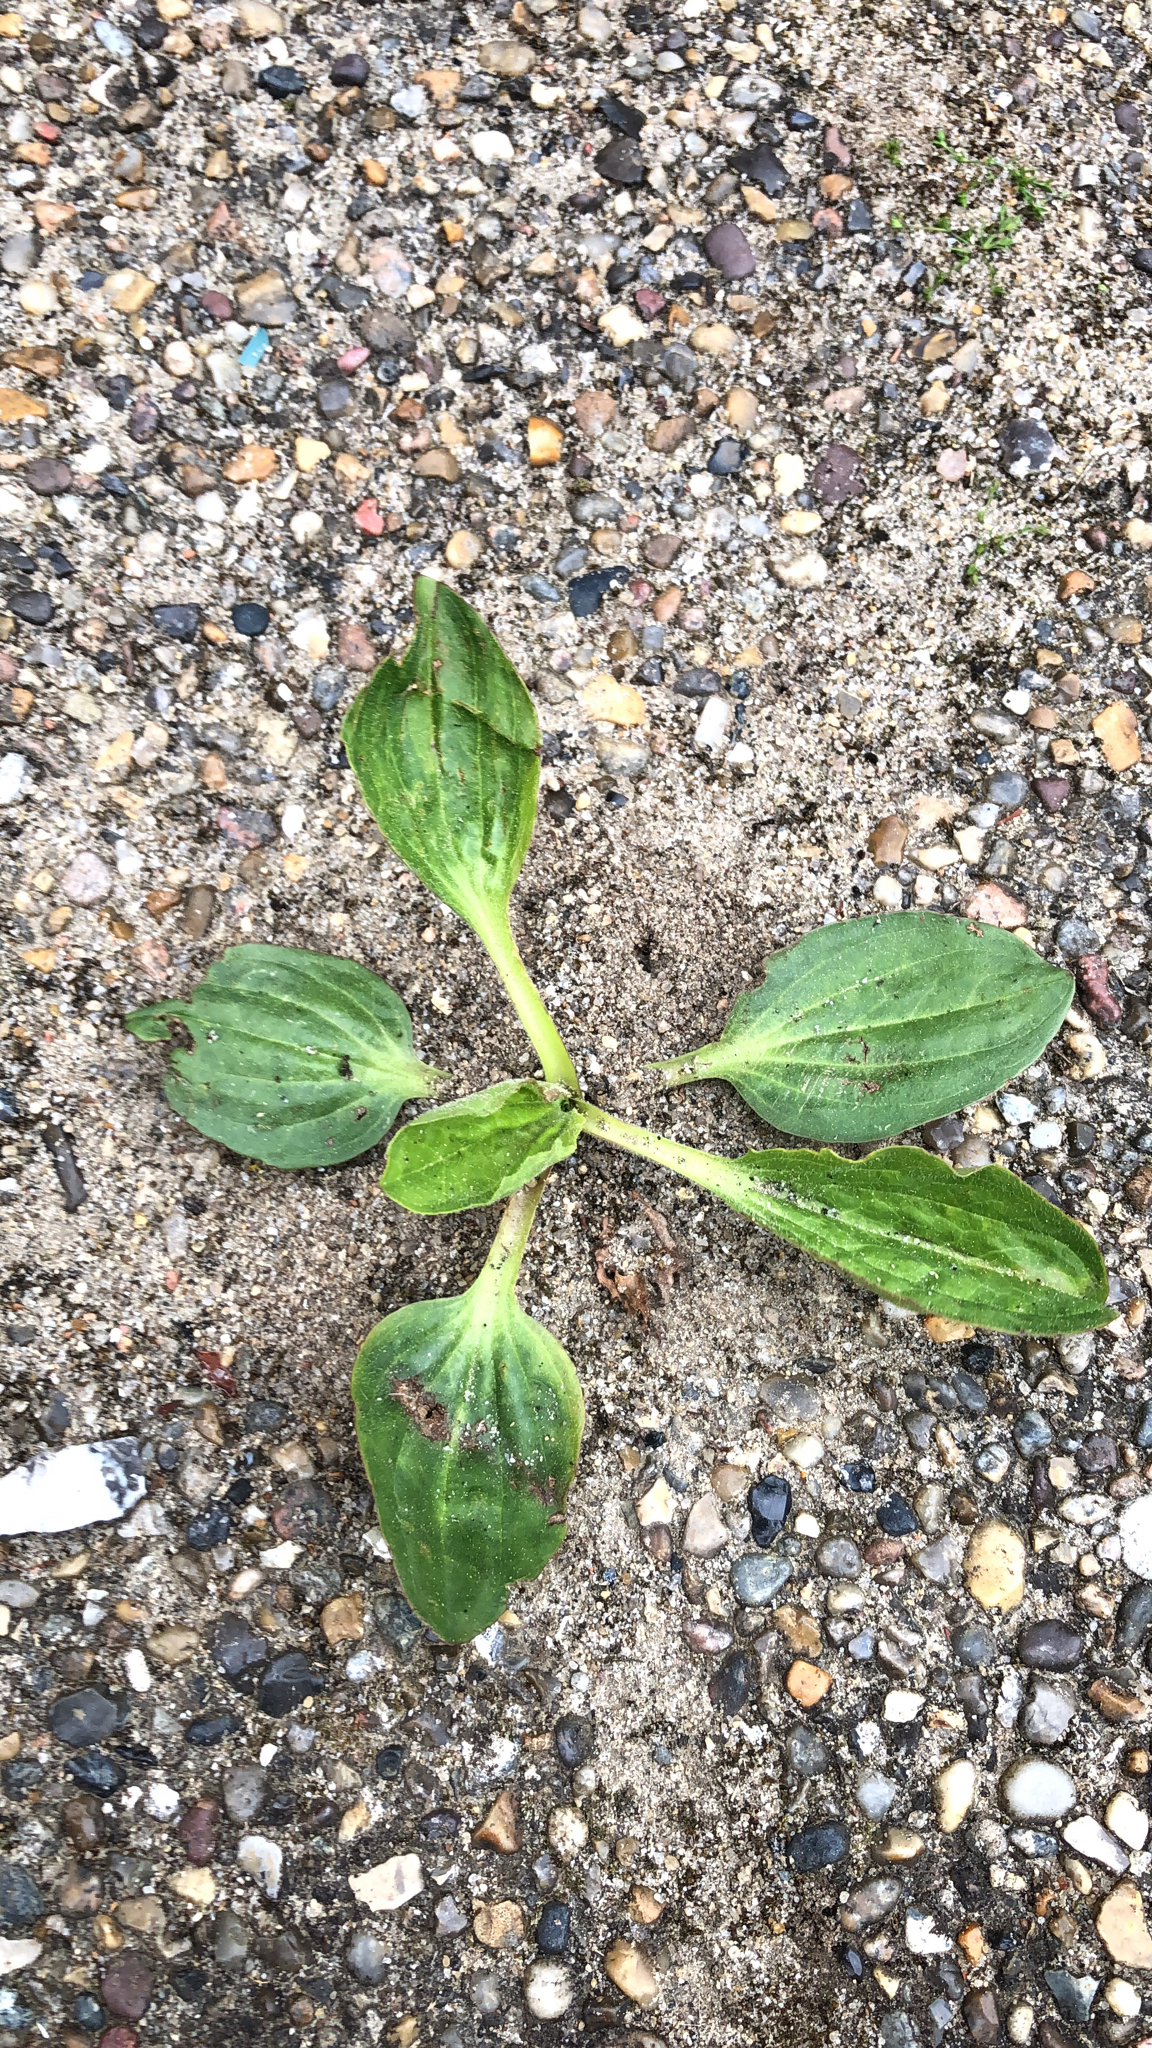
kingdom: Plantae
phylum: Tracheophyta
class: Magnoliopsida
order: Lamiales
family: Plantaginaceae
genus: Plantago
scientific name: Plantago major
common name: Common plantain
